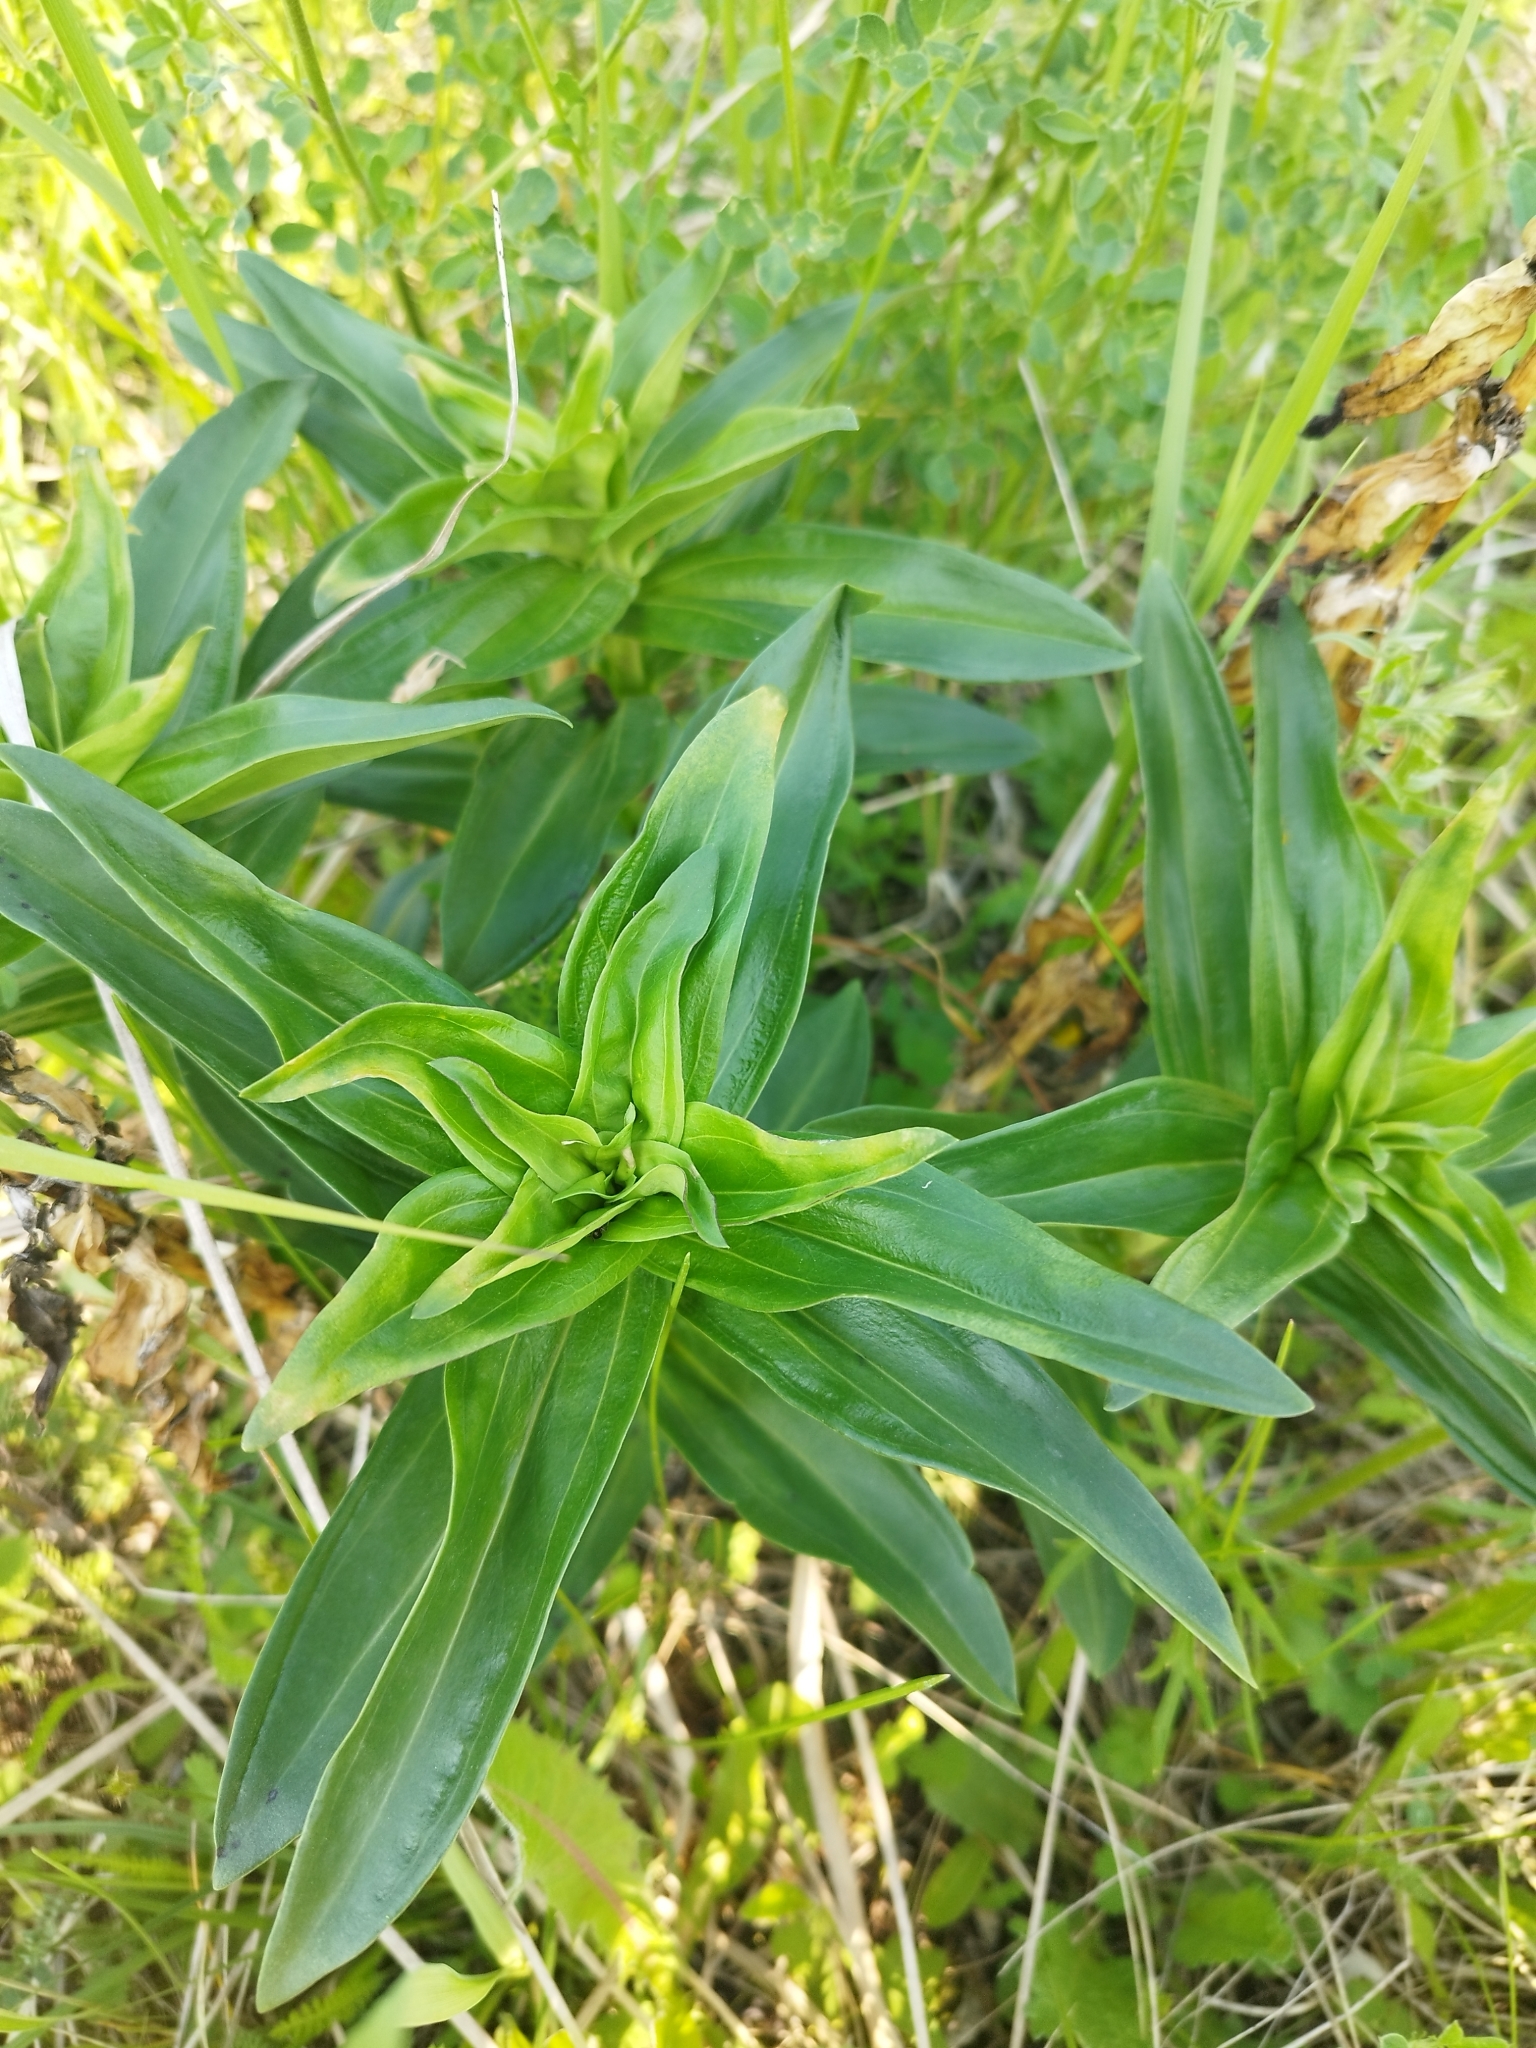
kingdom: Plantae
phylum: Tracheophyta
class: Magnoliopsida
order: Gentianales
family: Gentianaceae
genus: Gentiana
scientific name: Gentiana cruciata
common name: Cross gentian
